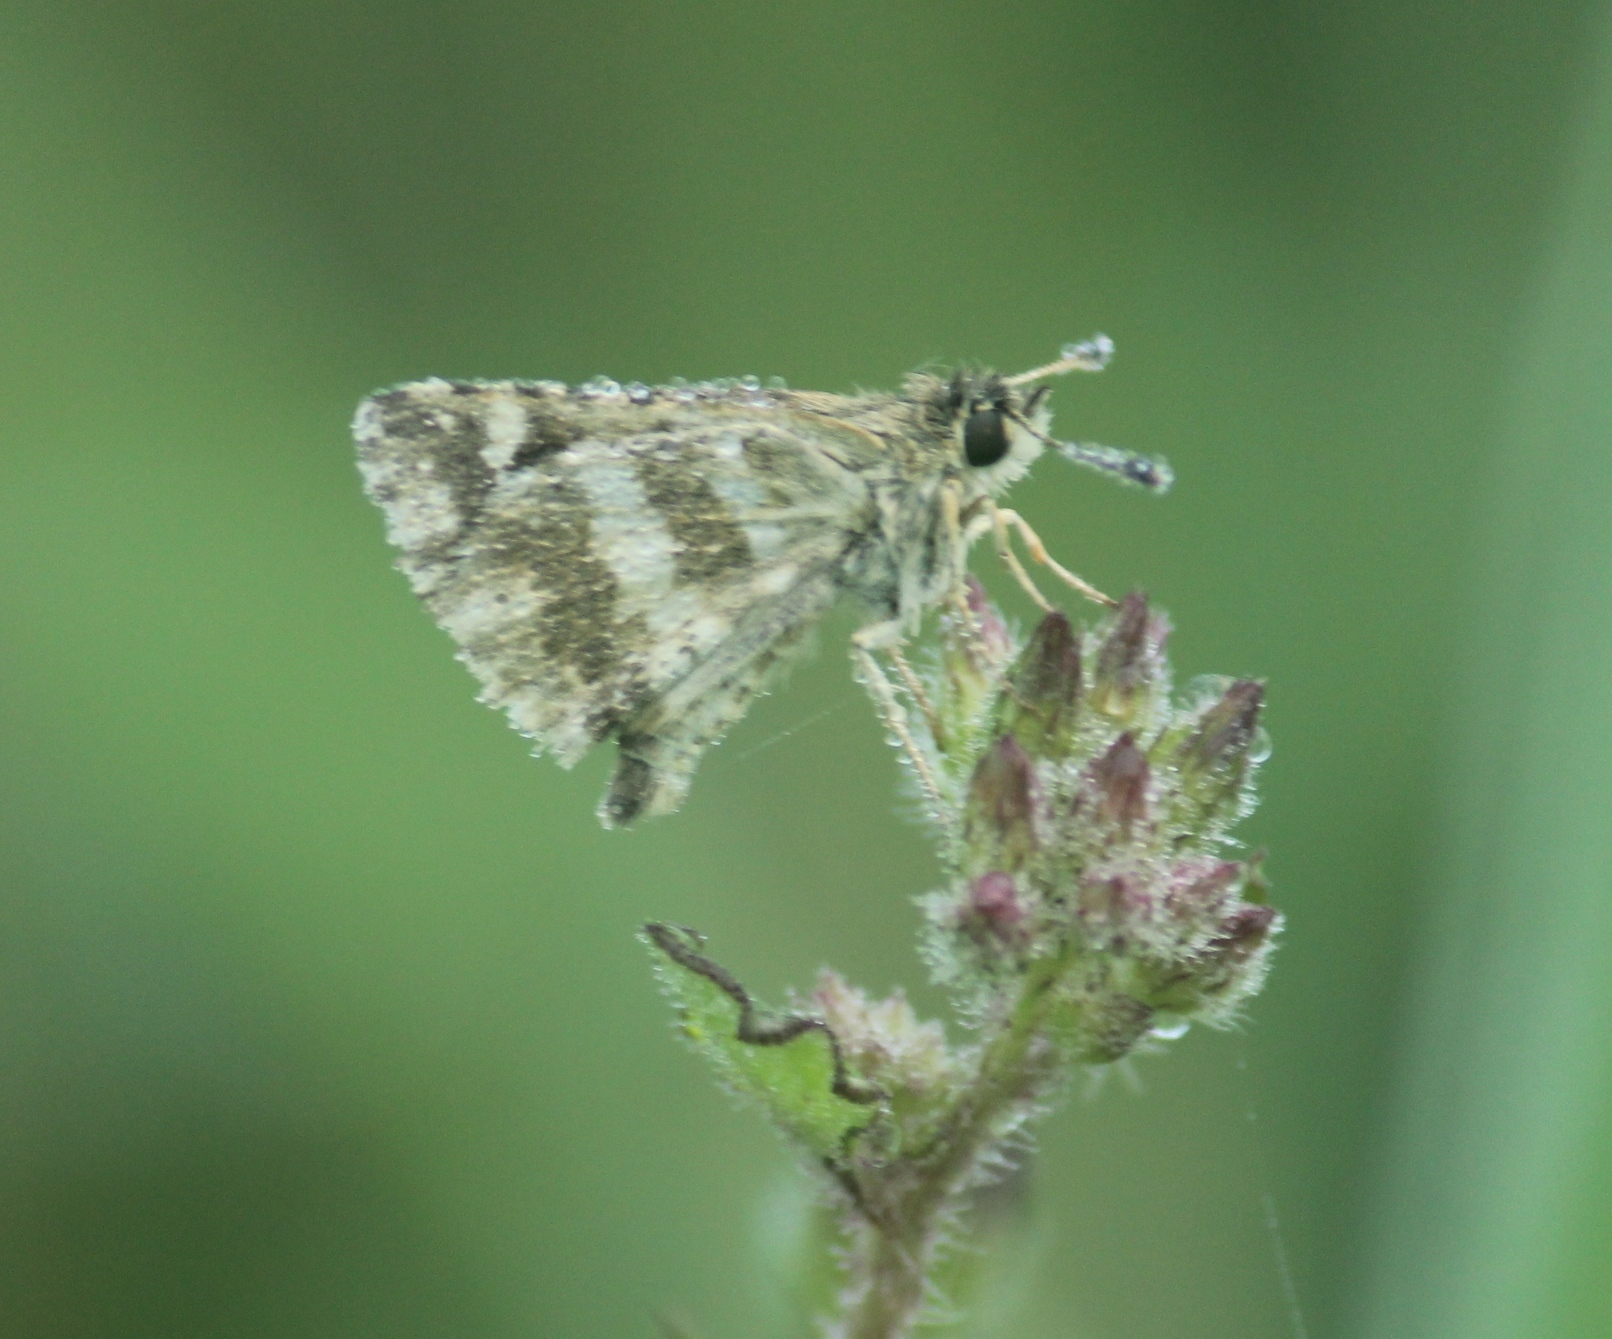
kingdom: Animalia
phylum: Arthropoda
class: Insecta
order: Lepidoptera
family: Hesperiidae
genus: Spialia
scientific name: Spialia galba
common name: Indian skipper
